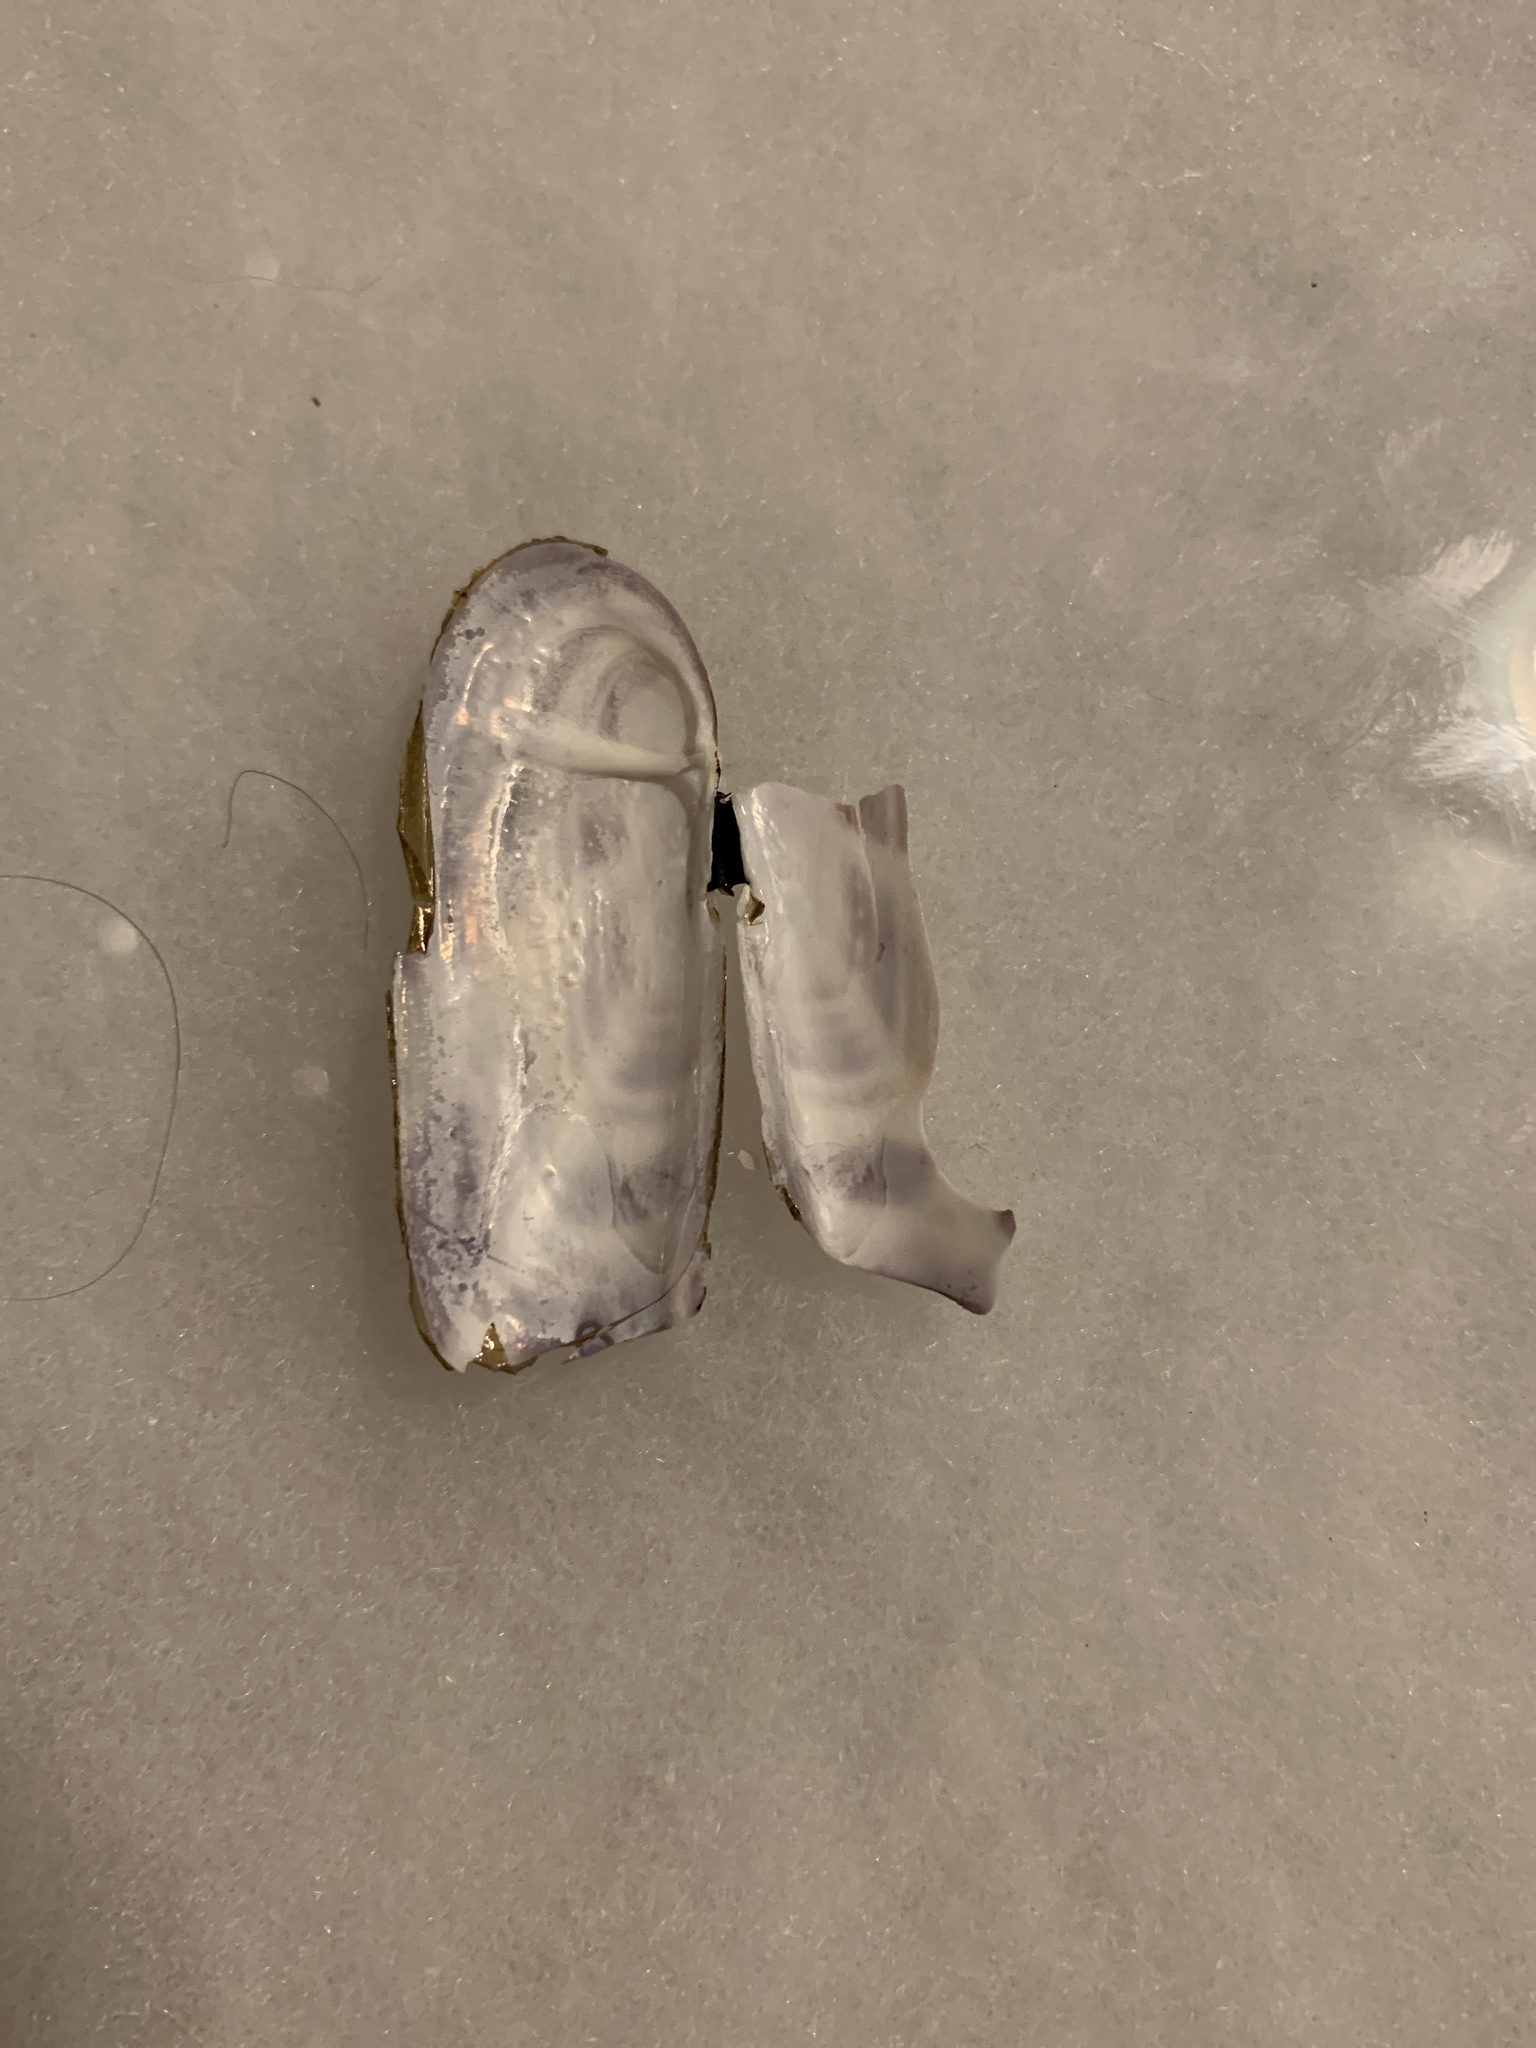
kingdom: Animalia
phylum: Mollusca
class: Bivalvia
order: Adapedonta
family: Pharidae
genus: Siliqua
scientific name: Siliqua lucida
